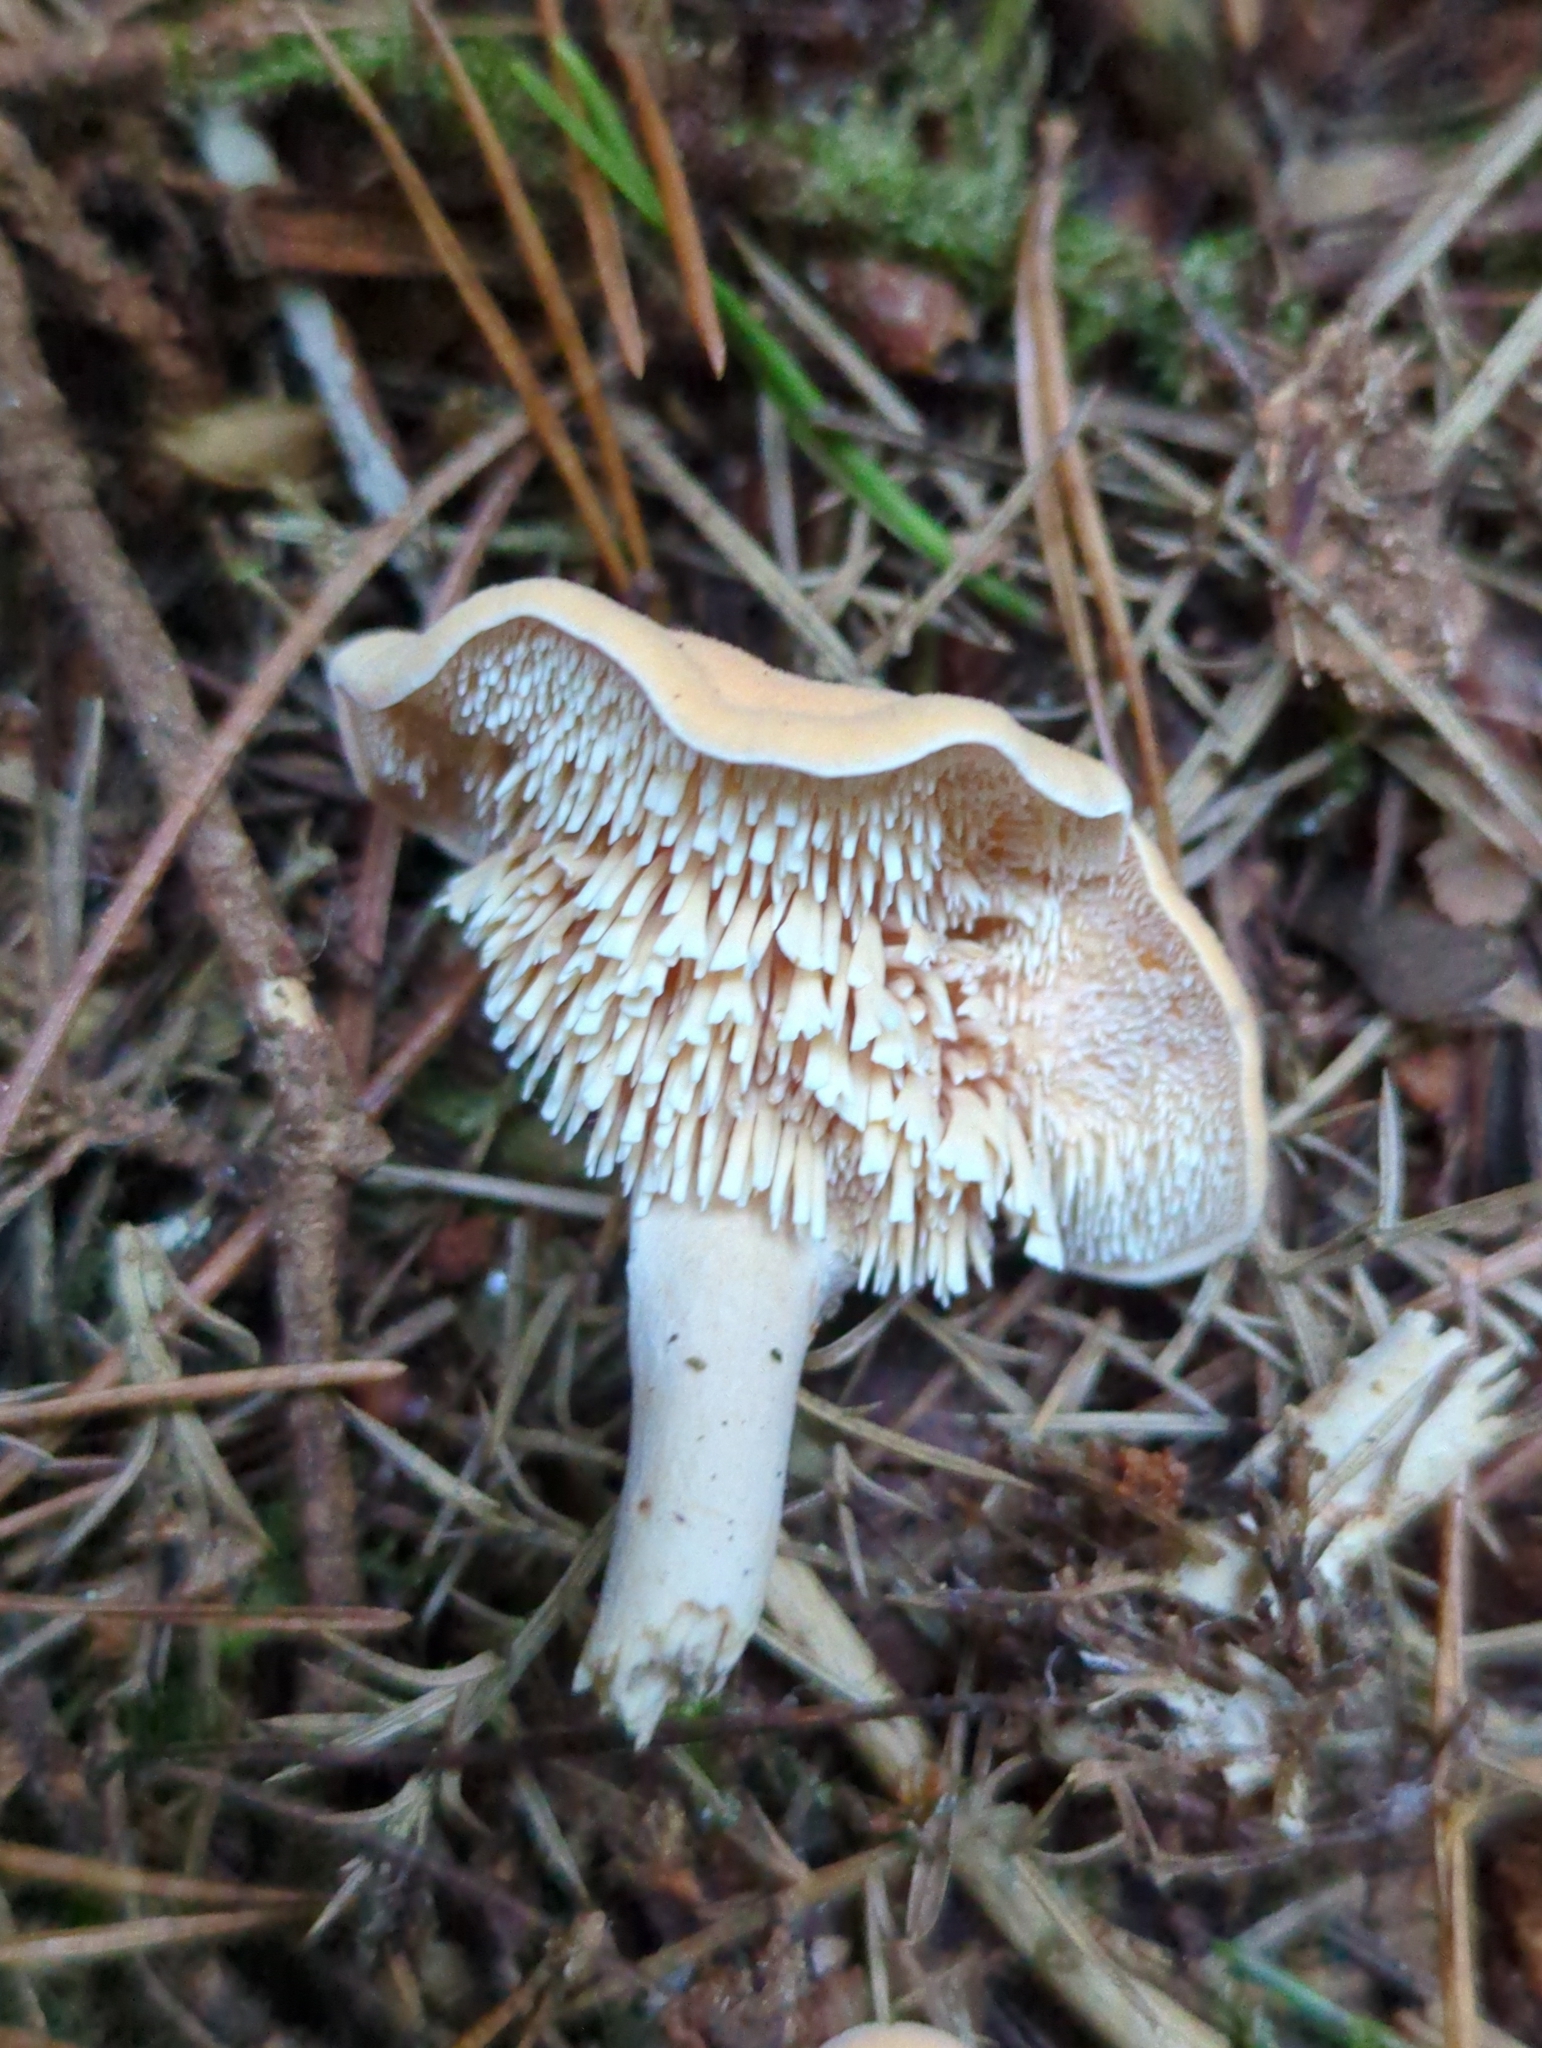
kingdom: Fungi
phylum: Basidiomycota
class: Agaricomycetes
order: Cantharellales
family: Hydnaceae
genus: Hydnum
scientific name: Hydnum rufescens
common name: Terracotta hedgehog
